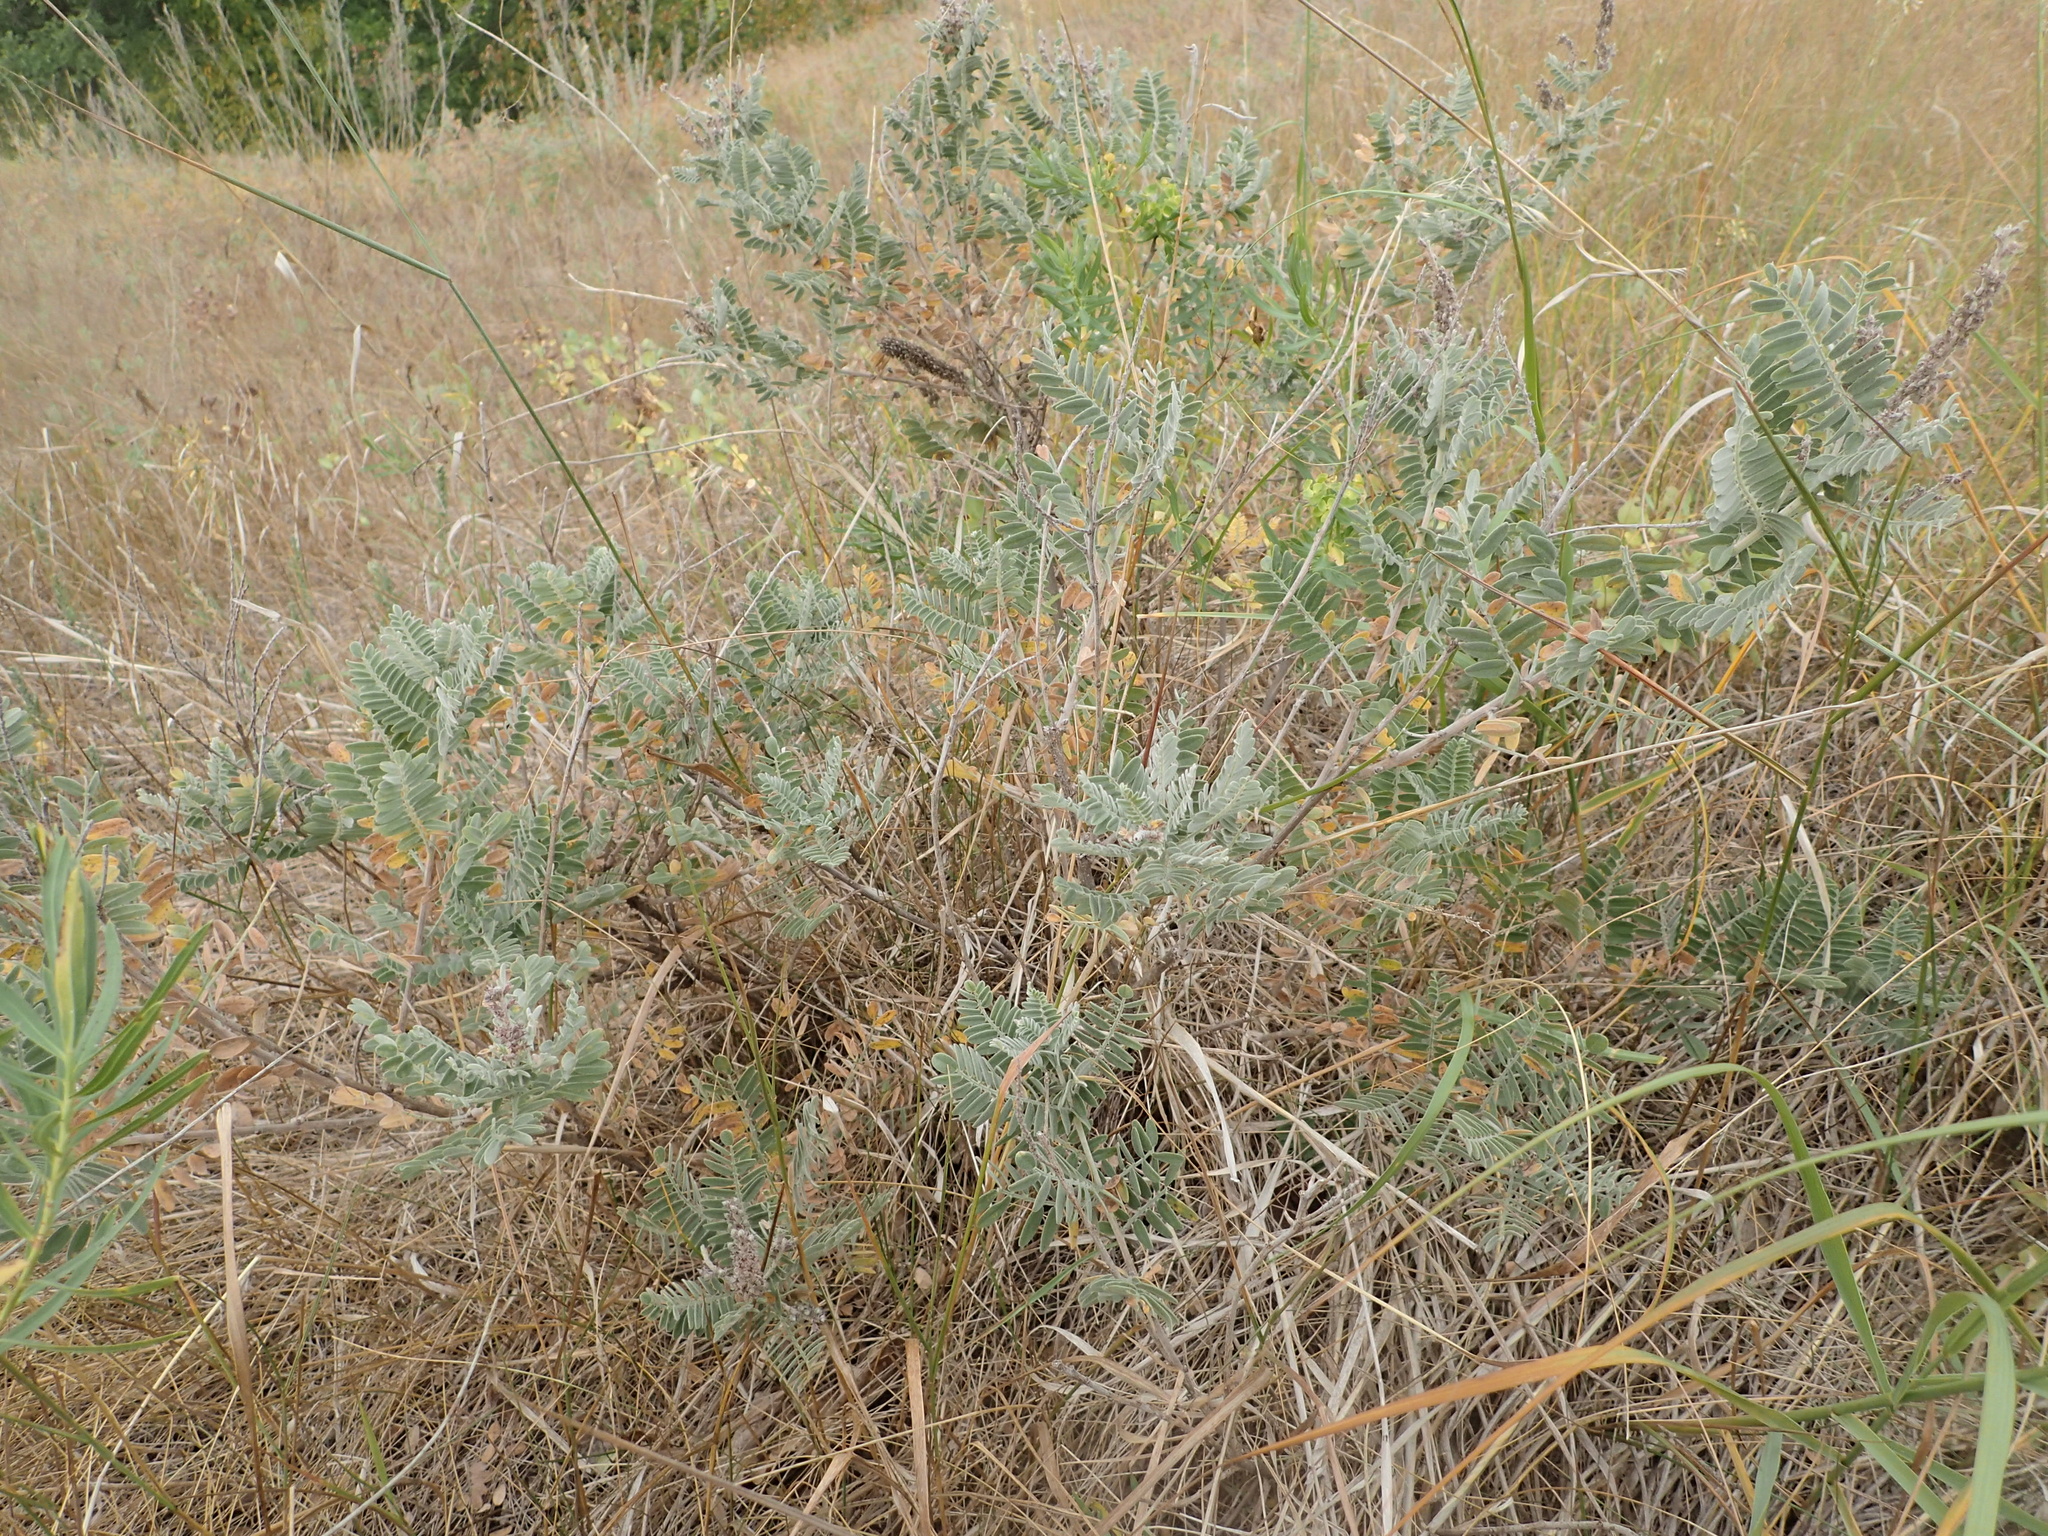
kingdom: Plantae
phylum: Tracheophyta
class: Magnoliopsida
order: Fabales
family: Fabaceae
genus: Amorpha
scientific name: Amorpha canescens
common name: Leadplant
